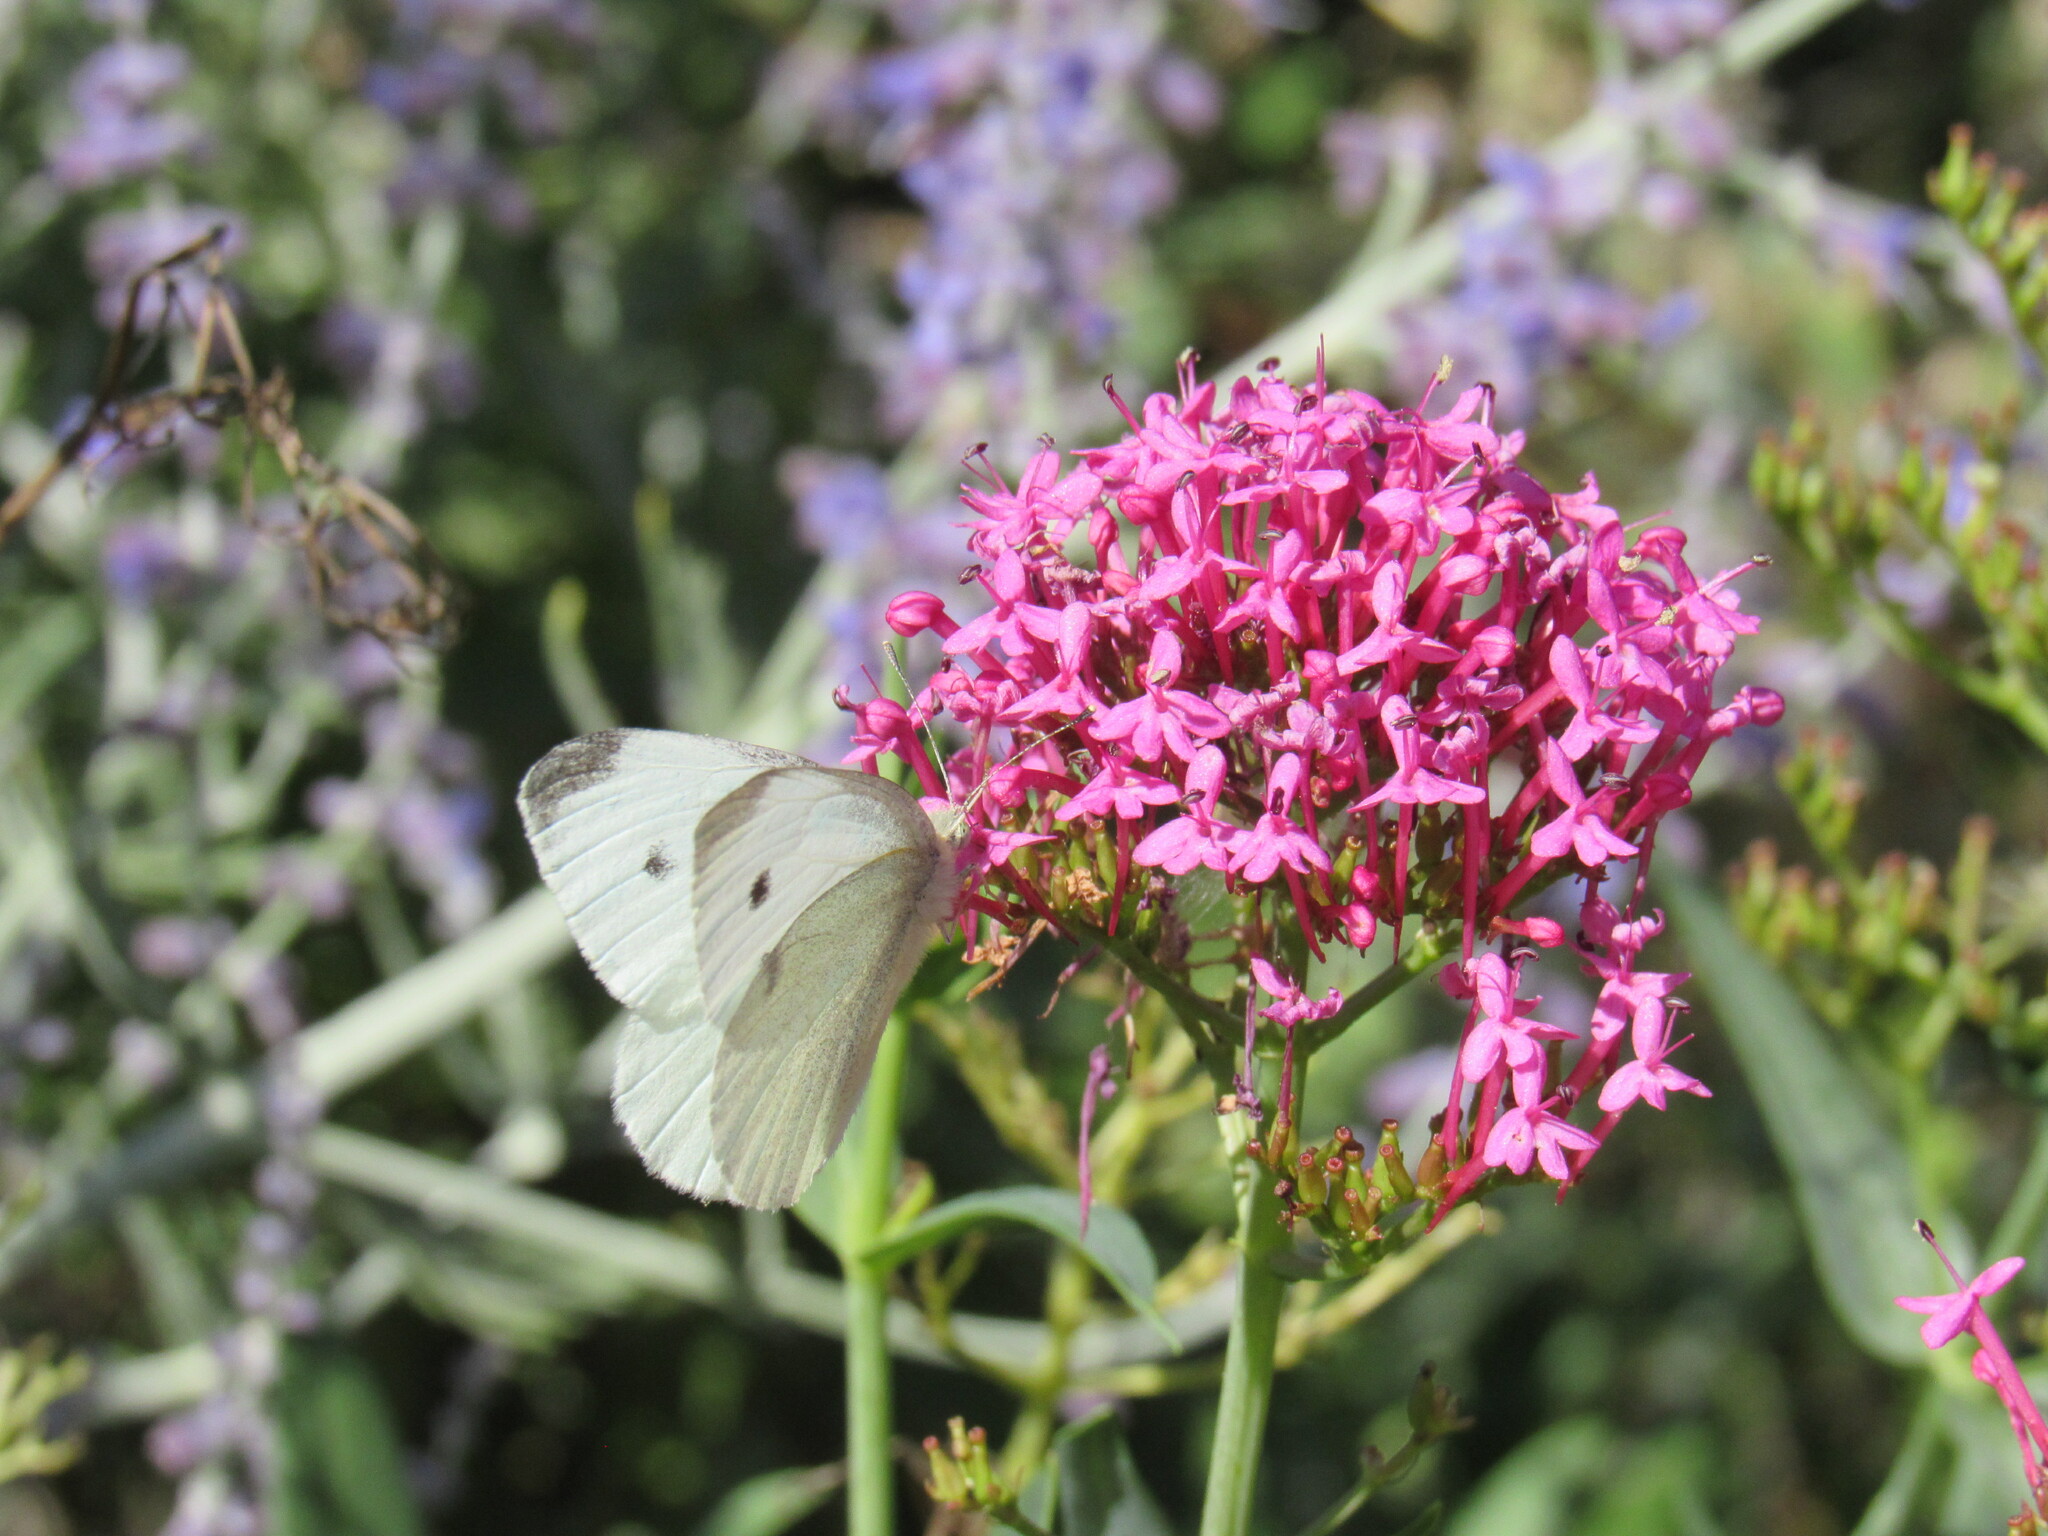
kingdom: Animalia
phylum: Arthropoda
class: Insecta
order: Lepidoptera
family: Pieridae
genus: Pieris
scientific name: Pieris rapae
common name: Small white
